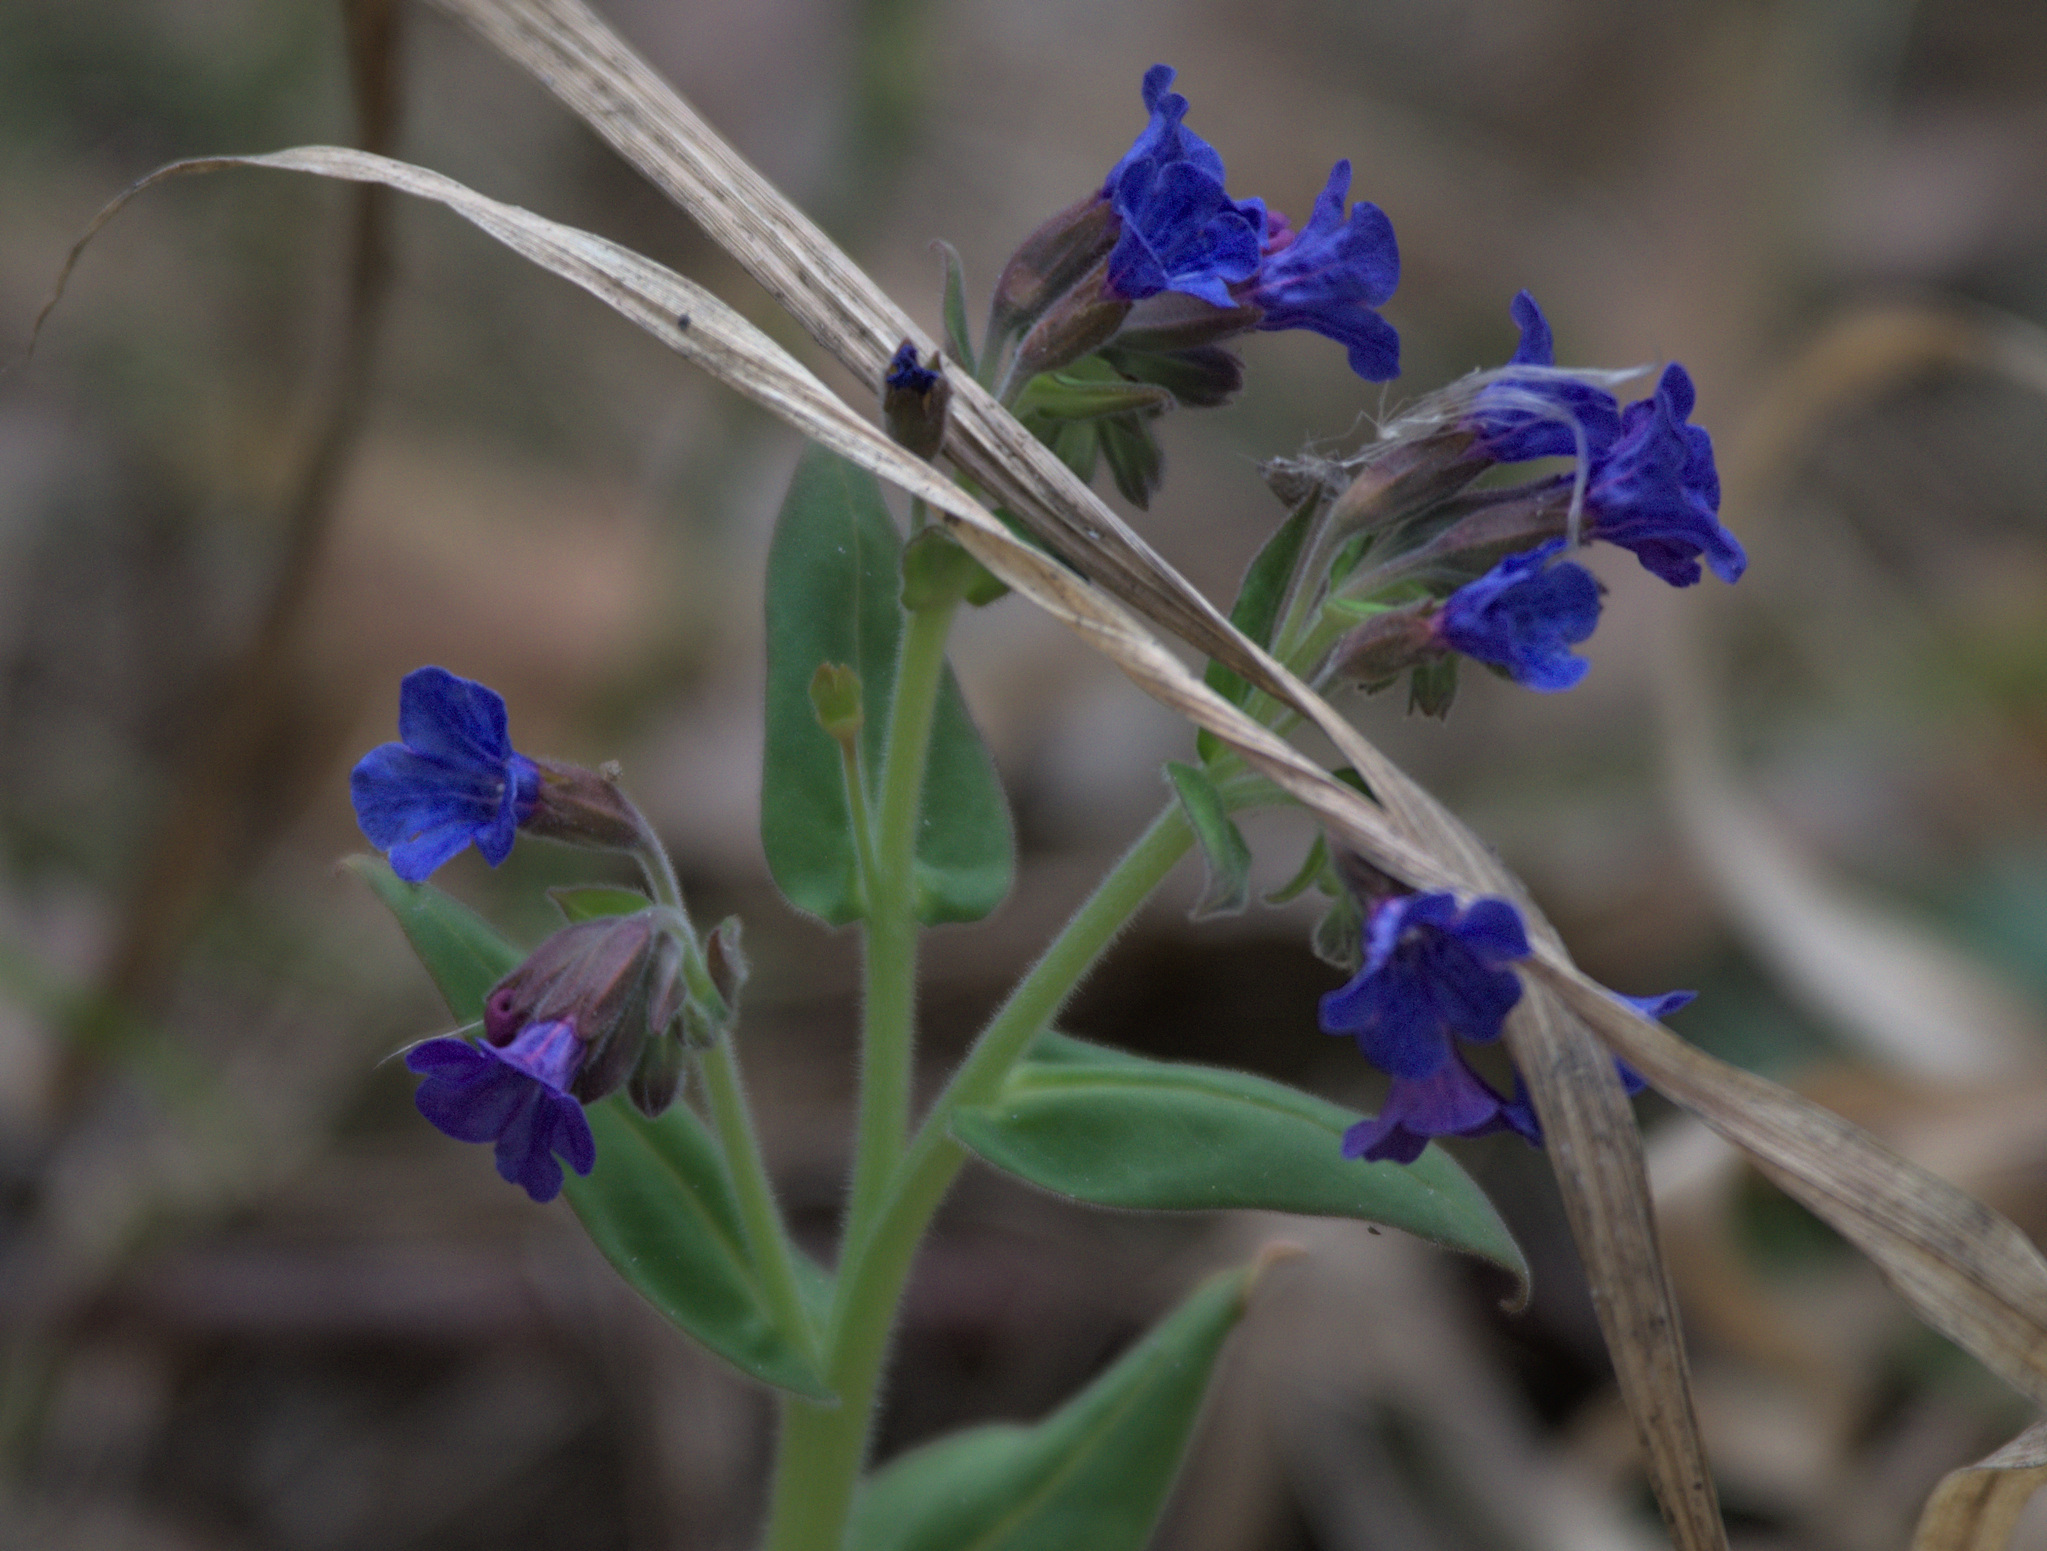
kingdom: Plantae
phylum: Tracheophyta
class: Magnoliopsida
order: Boraginales
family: Boraginaceae
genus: Pulmonaria
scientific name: Pulmonaria mollis
